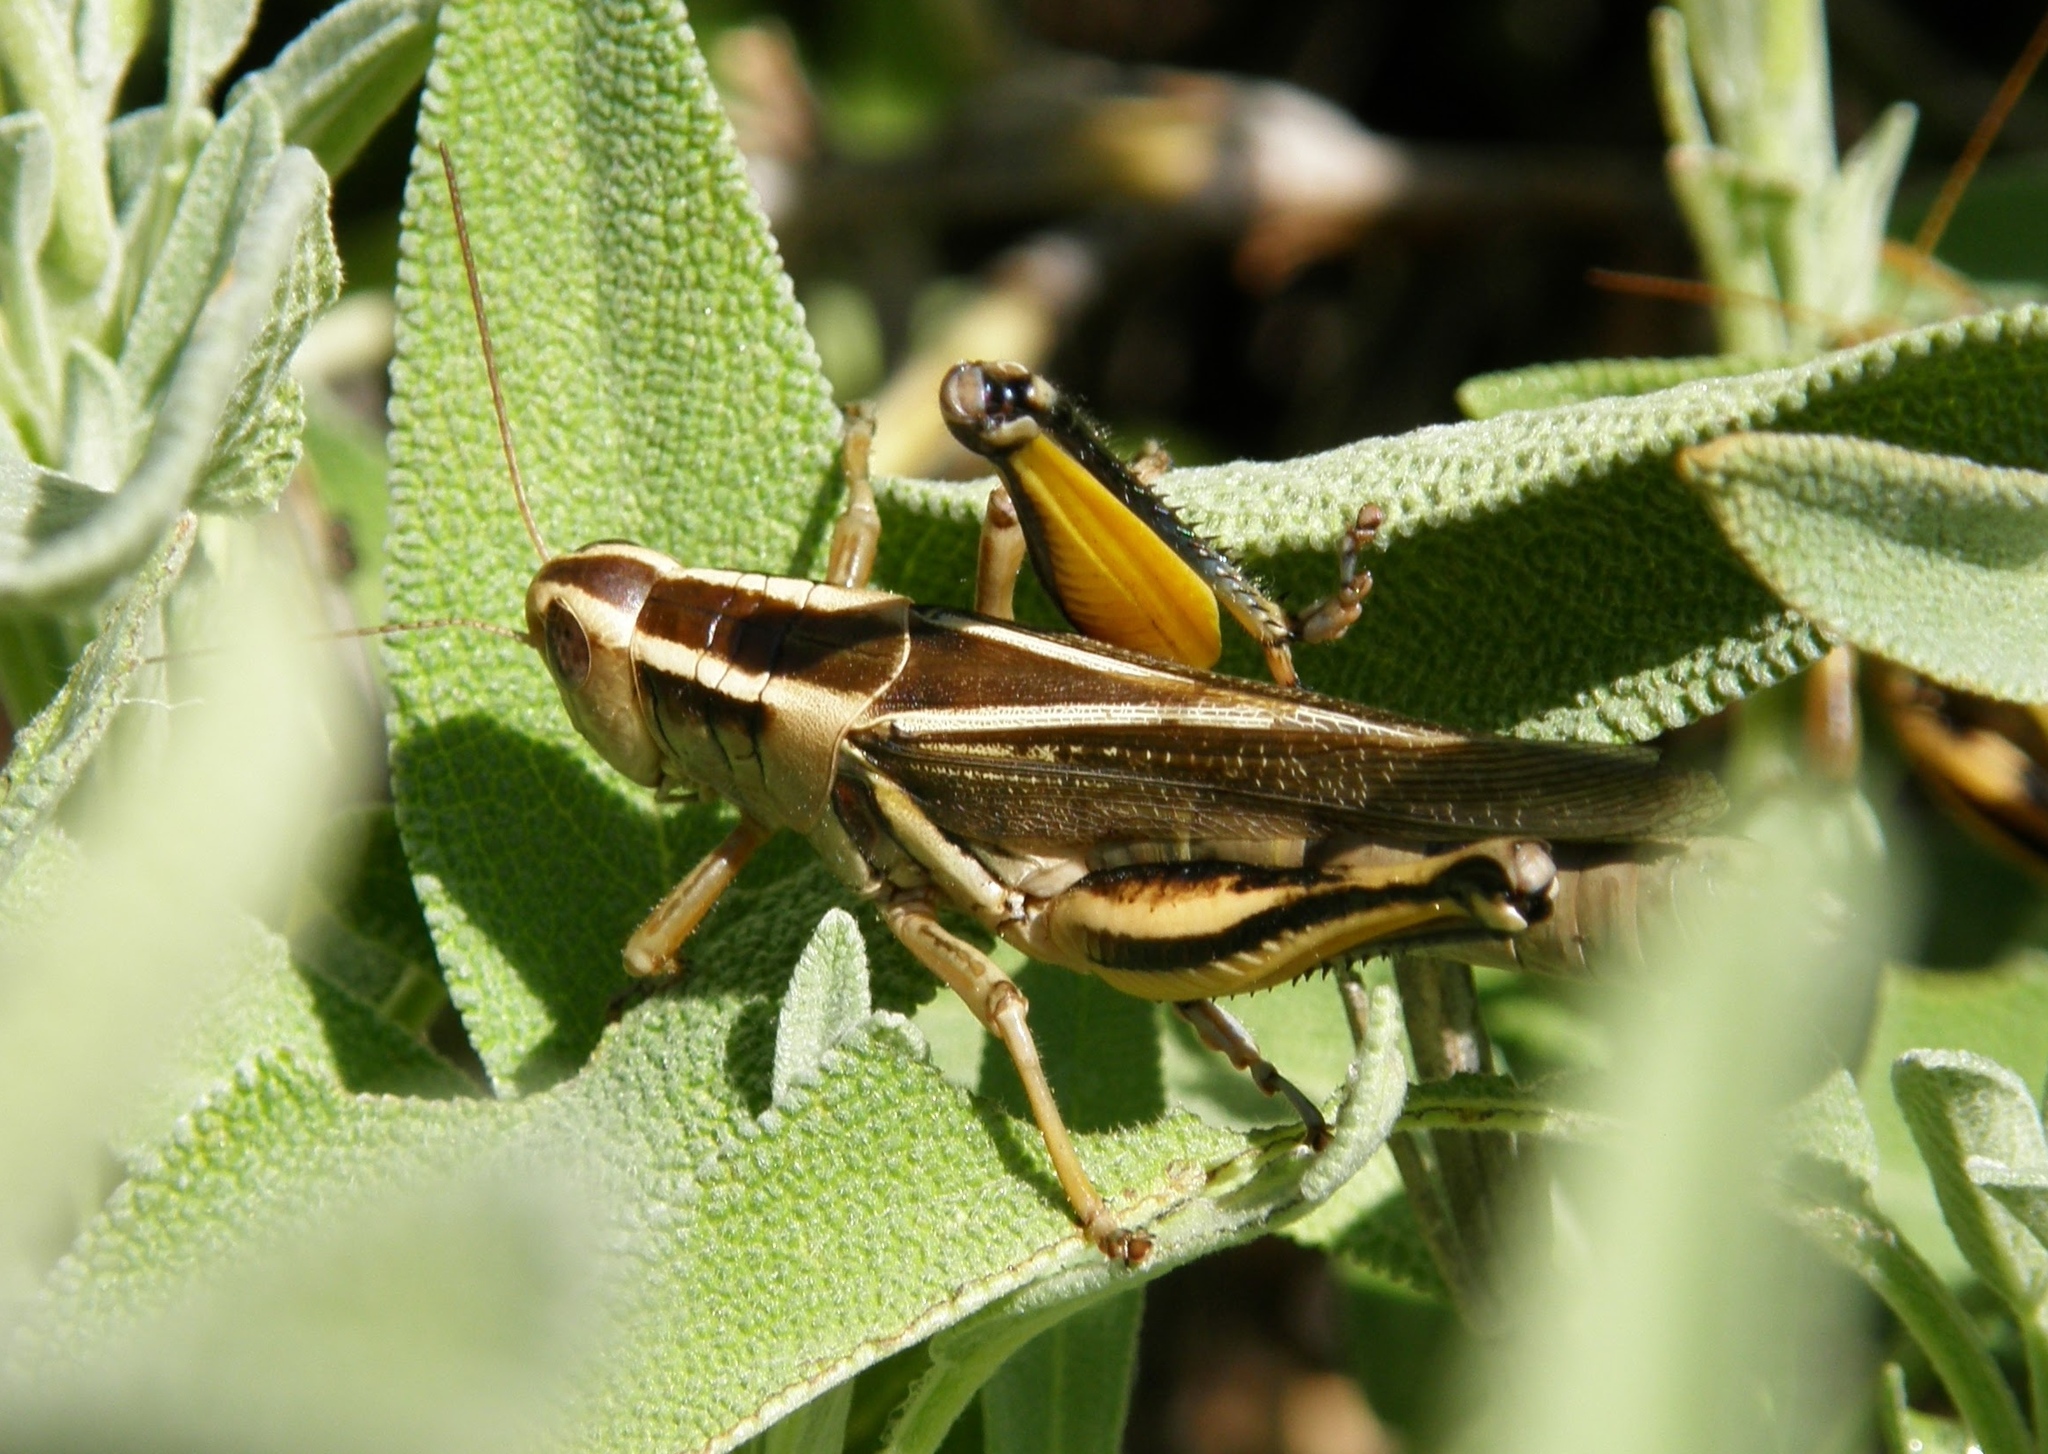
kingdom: Animalia
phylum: Arthropoda
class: Insecta
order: Orthoptera
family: Acrididae
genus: Melanoplus
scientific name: Melanoplus bivittatus
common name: Two-striped grasshopper
